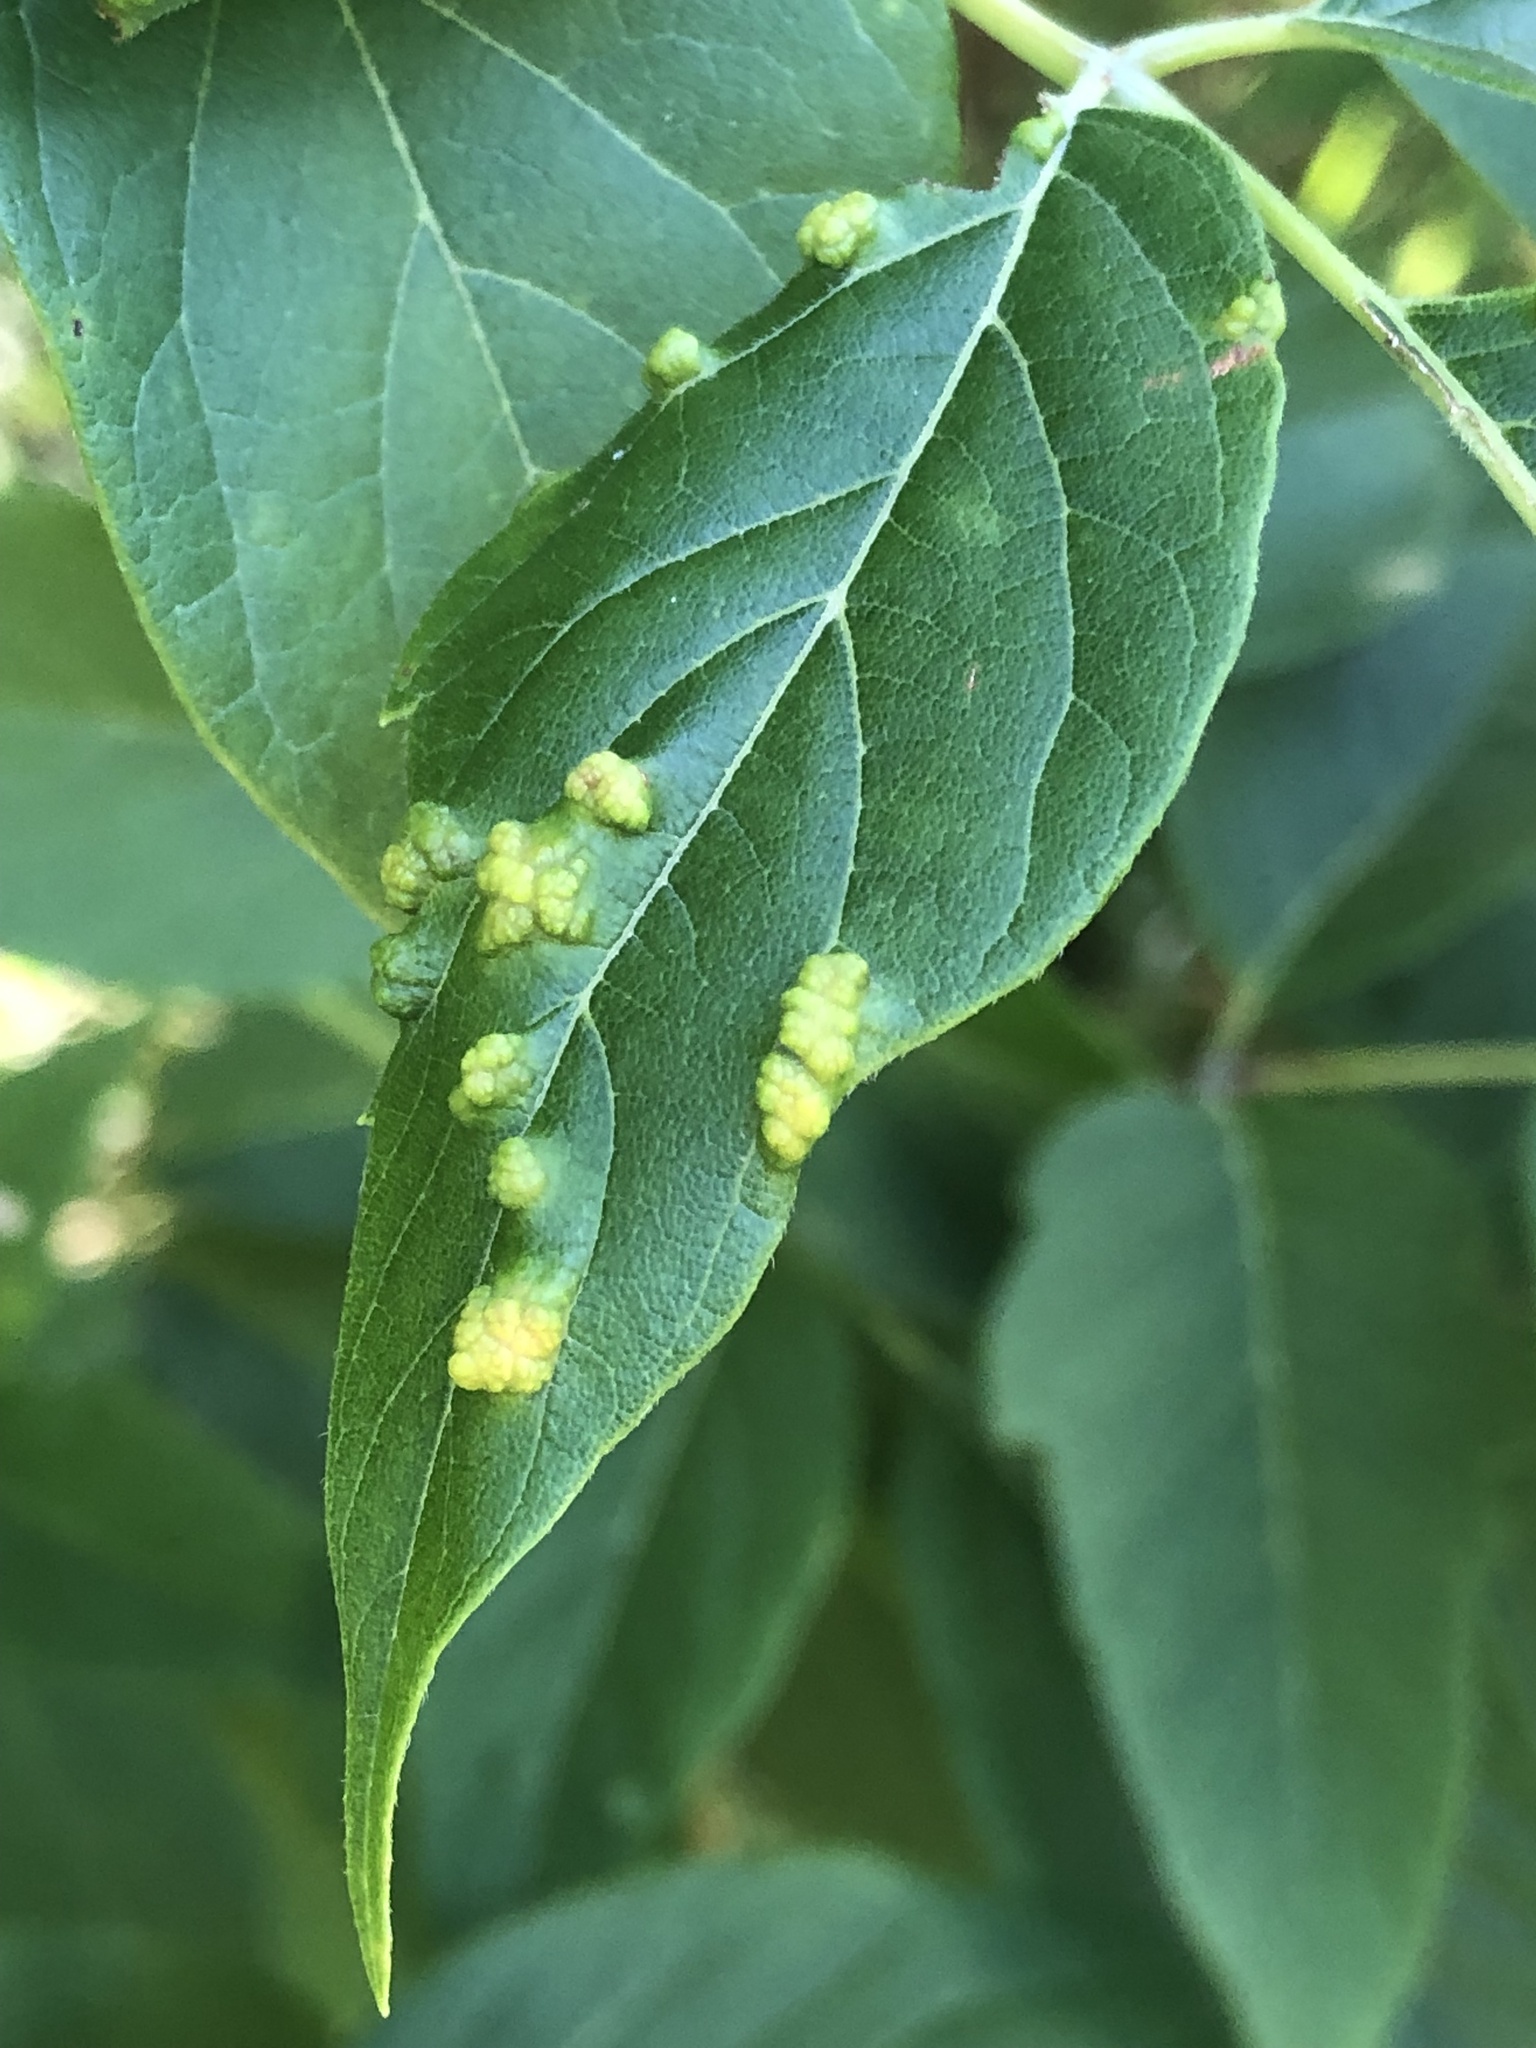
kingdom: Animalia
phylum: Arthropoda
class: Arachnida
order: Trombidiformes
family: Eriophyidae
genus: Aceria
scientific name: Aceria
